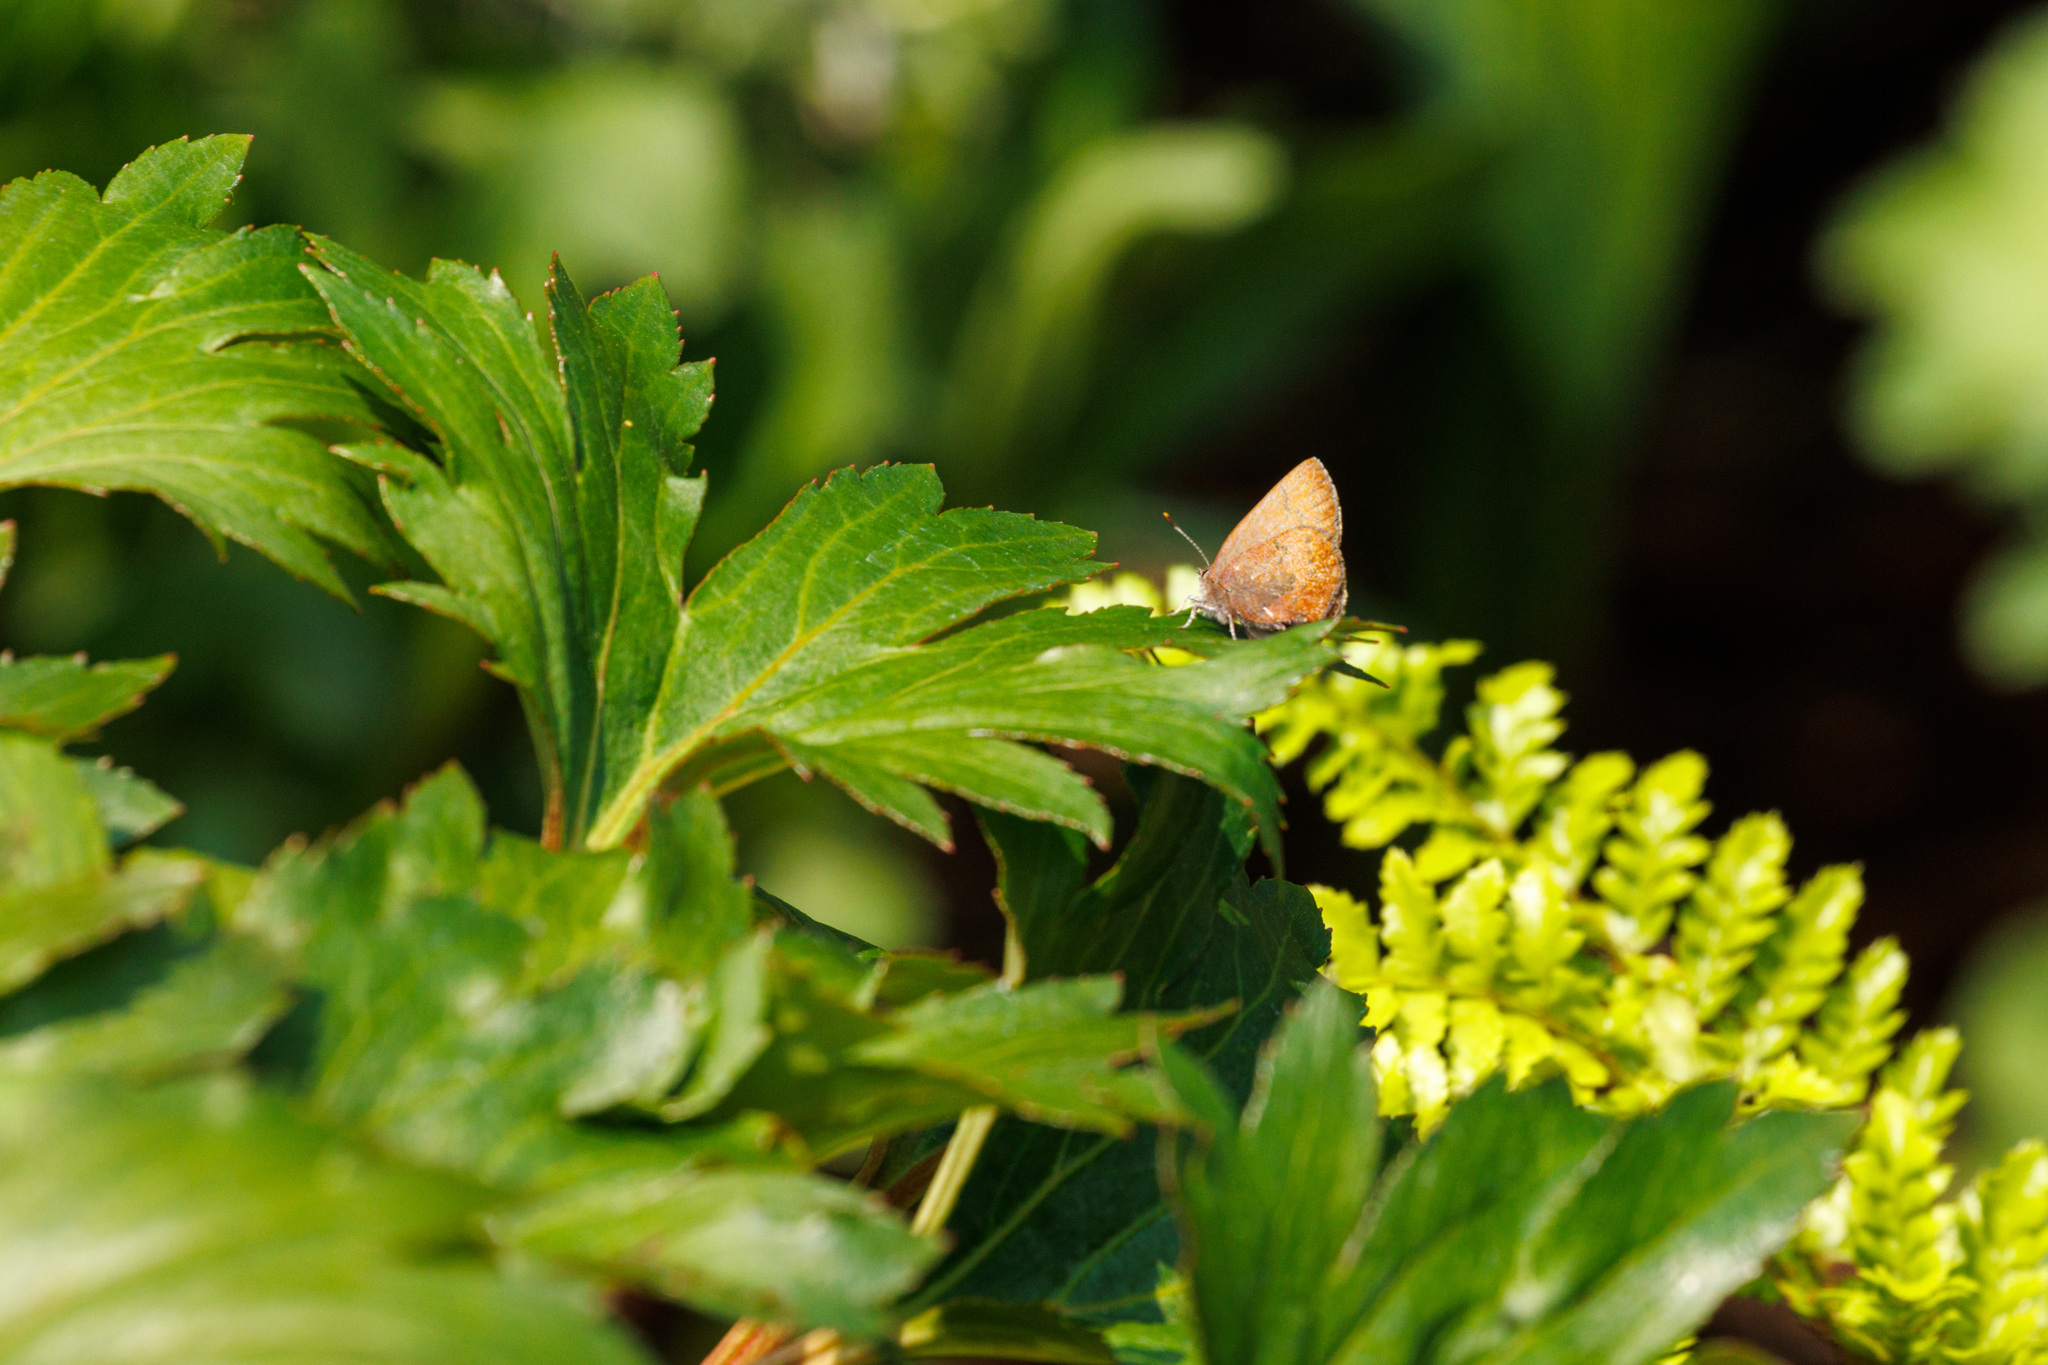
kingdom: Animalia
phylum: Arthropoda
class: Insecta
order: Lepidoptera
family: Lycaenidae
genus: Incisalia
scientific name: Incisalia irioides
